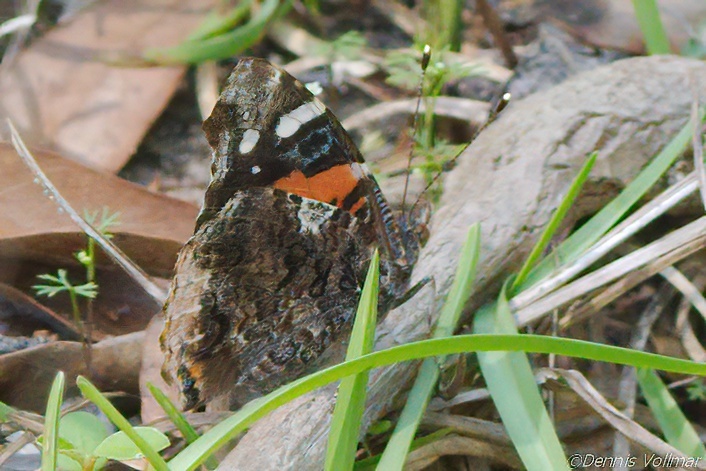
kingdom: Animalia
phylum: Arthropoda
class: Insecta
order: Lepidoptera
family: Nymphalidae
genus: Vanessa
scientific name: Vanessa atalanta
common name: Red admiral
